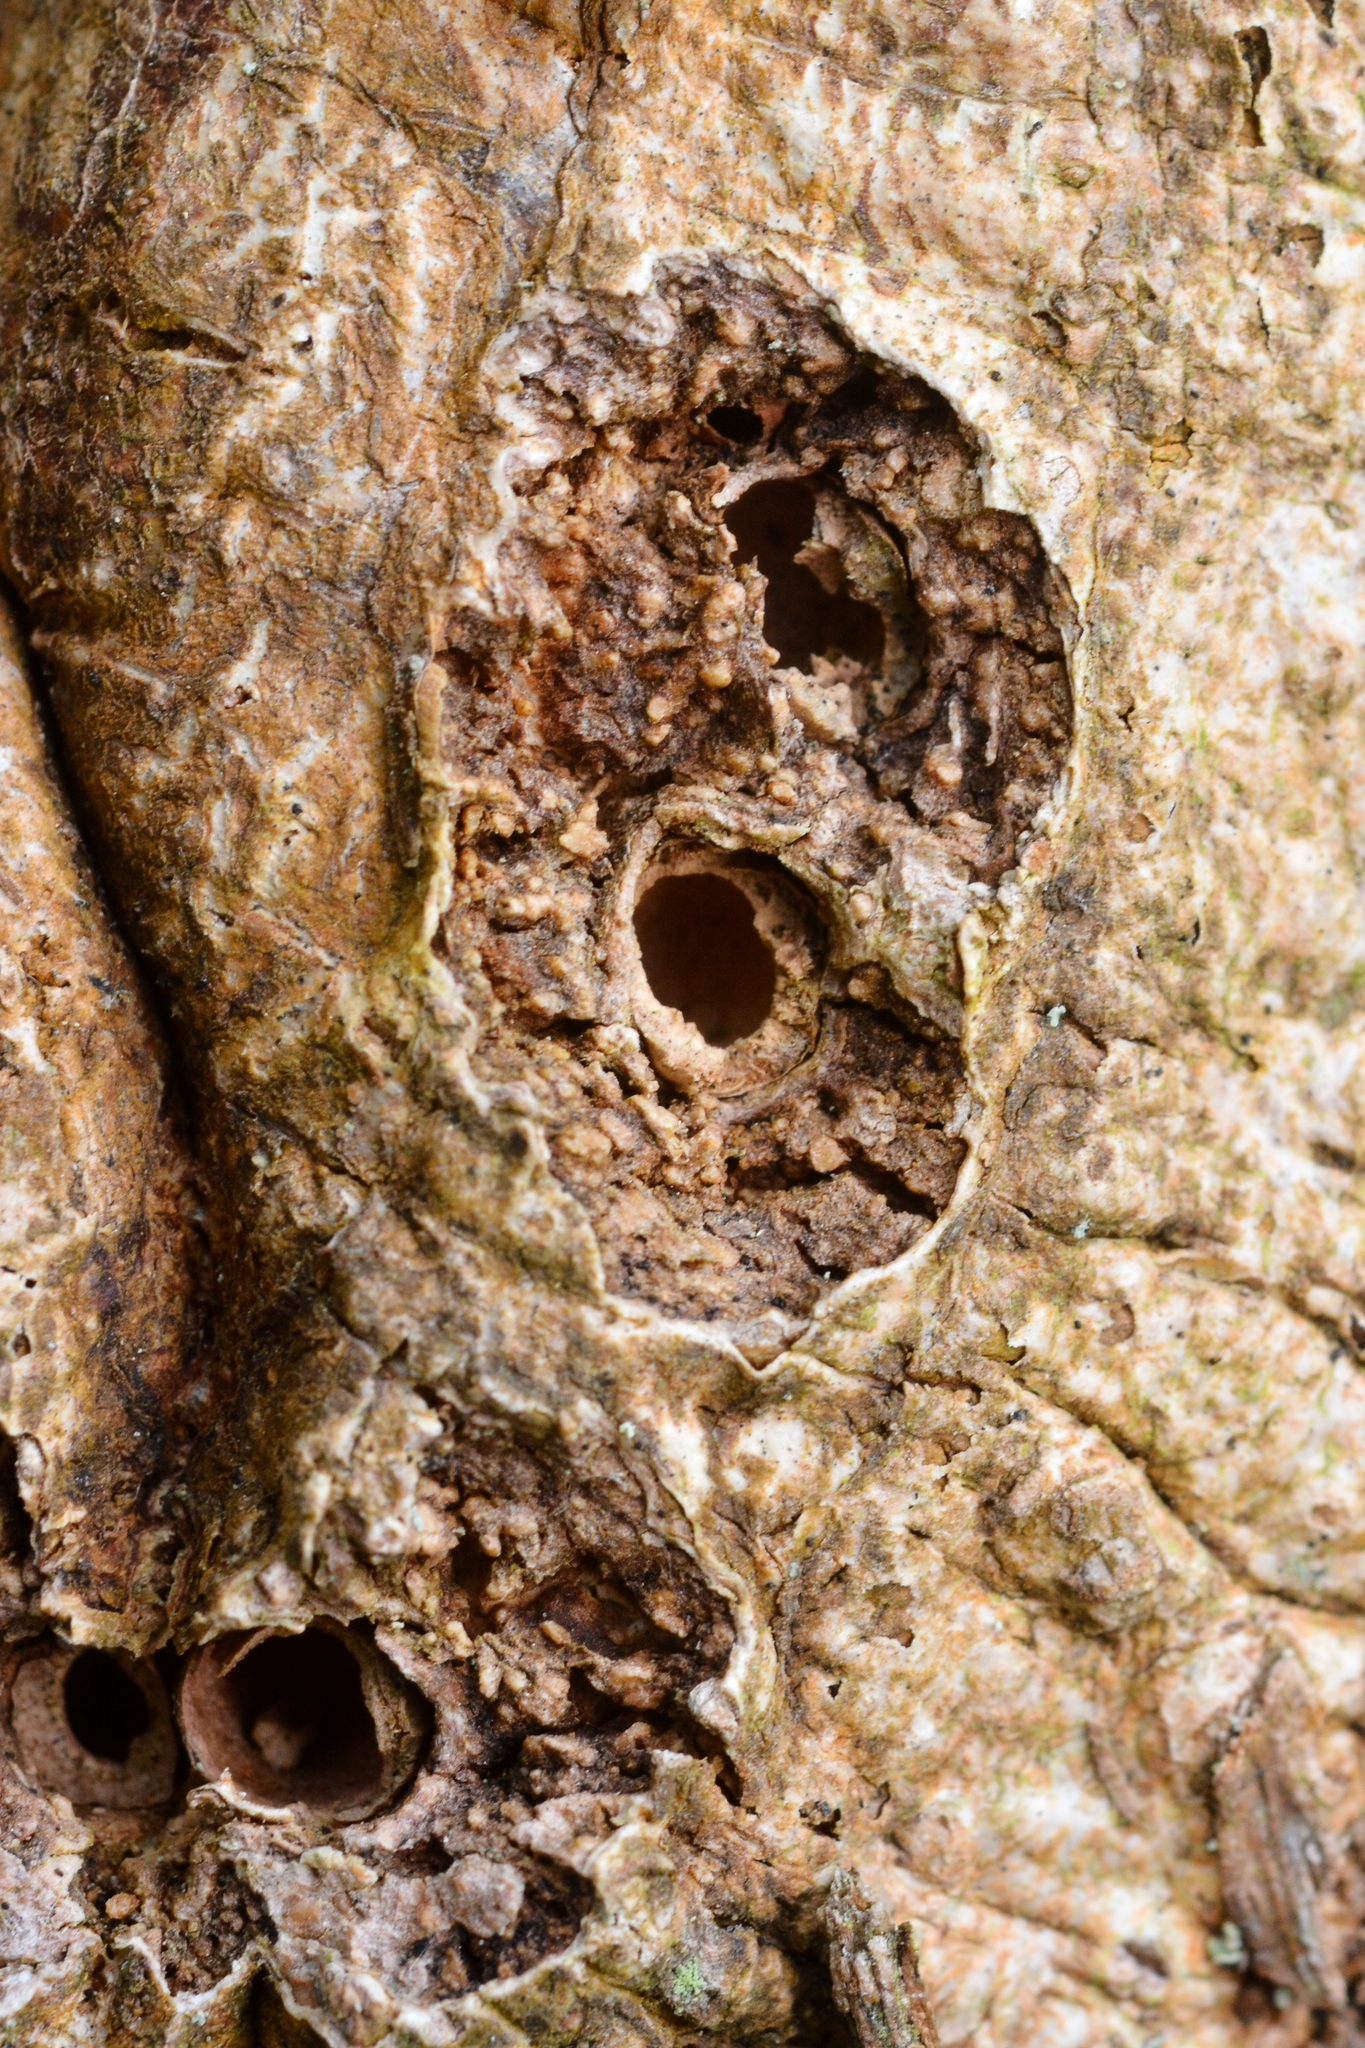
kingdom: Animalia
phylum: Arthropoda
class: Insecta
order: Hymenoptera
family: Cynipidae
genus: Andricus
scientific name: Andricus quercuscorticis
